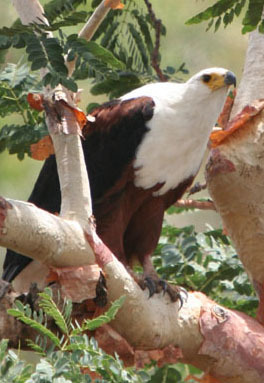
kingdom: Animalia
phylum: Chordata
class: Aves
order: Accipitriformes
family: Accipitridae
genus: Haliaeetus
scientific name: Haliaeetus vocifer
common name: African fish eagle
